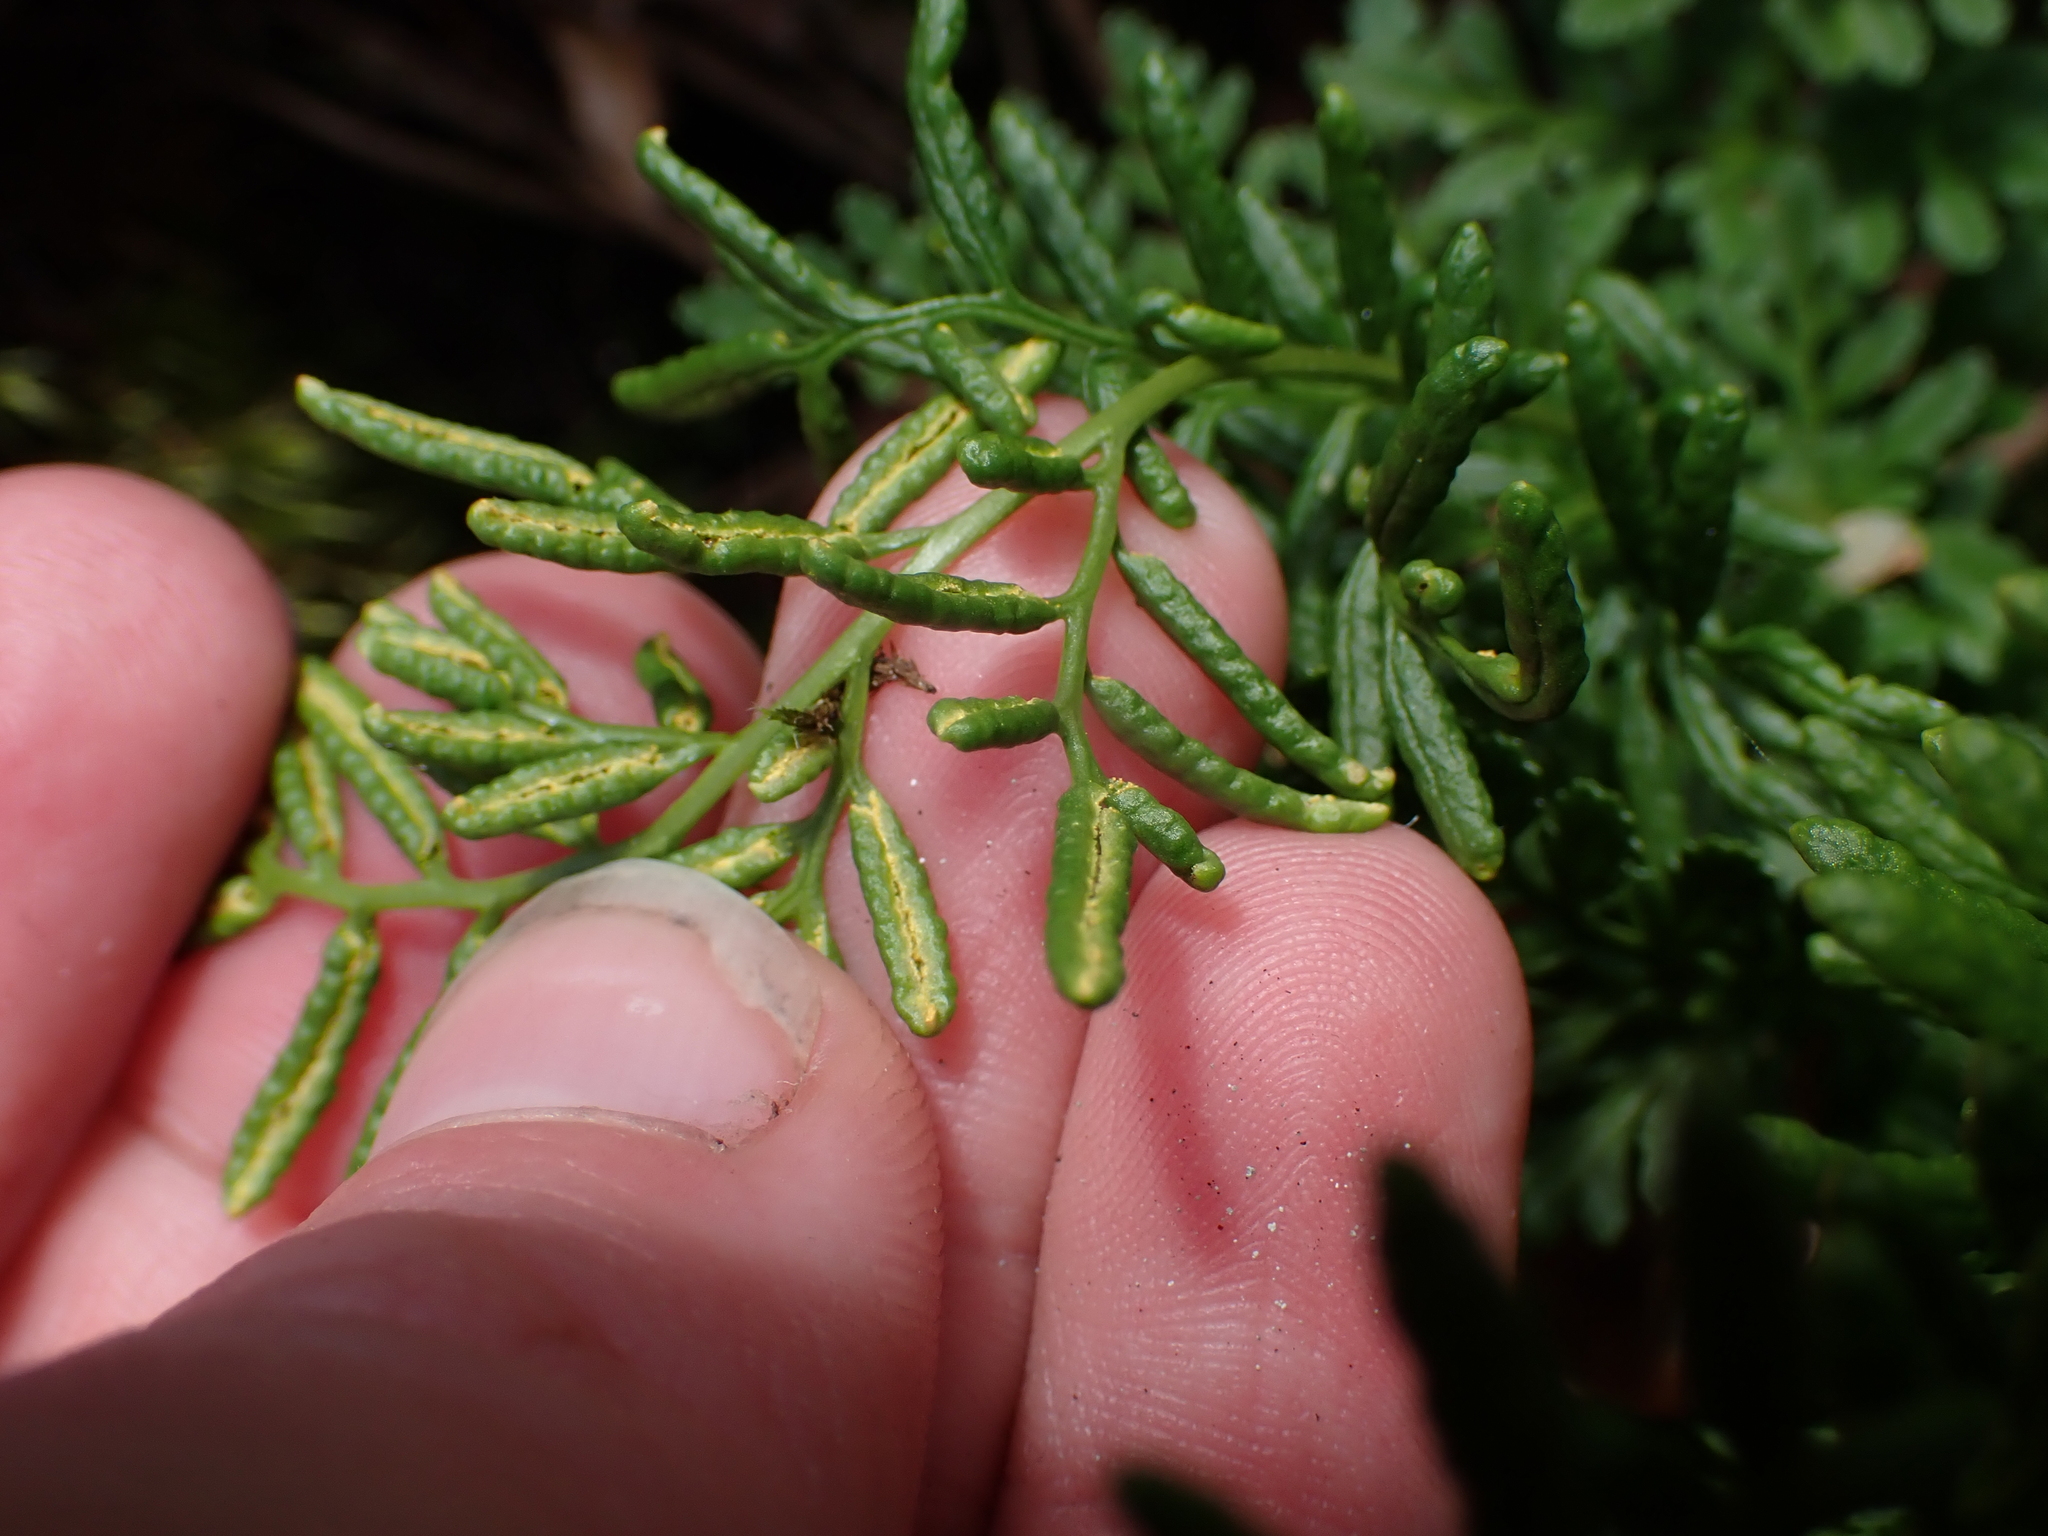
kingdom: Plantae
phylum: Tracheophyta
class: Polypodiopsida
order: Polypodiales
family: Pteridaceae
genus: Cryptogramma
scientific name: Cryptogramma acrostichoides
